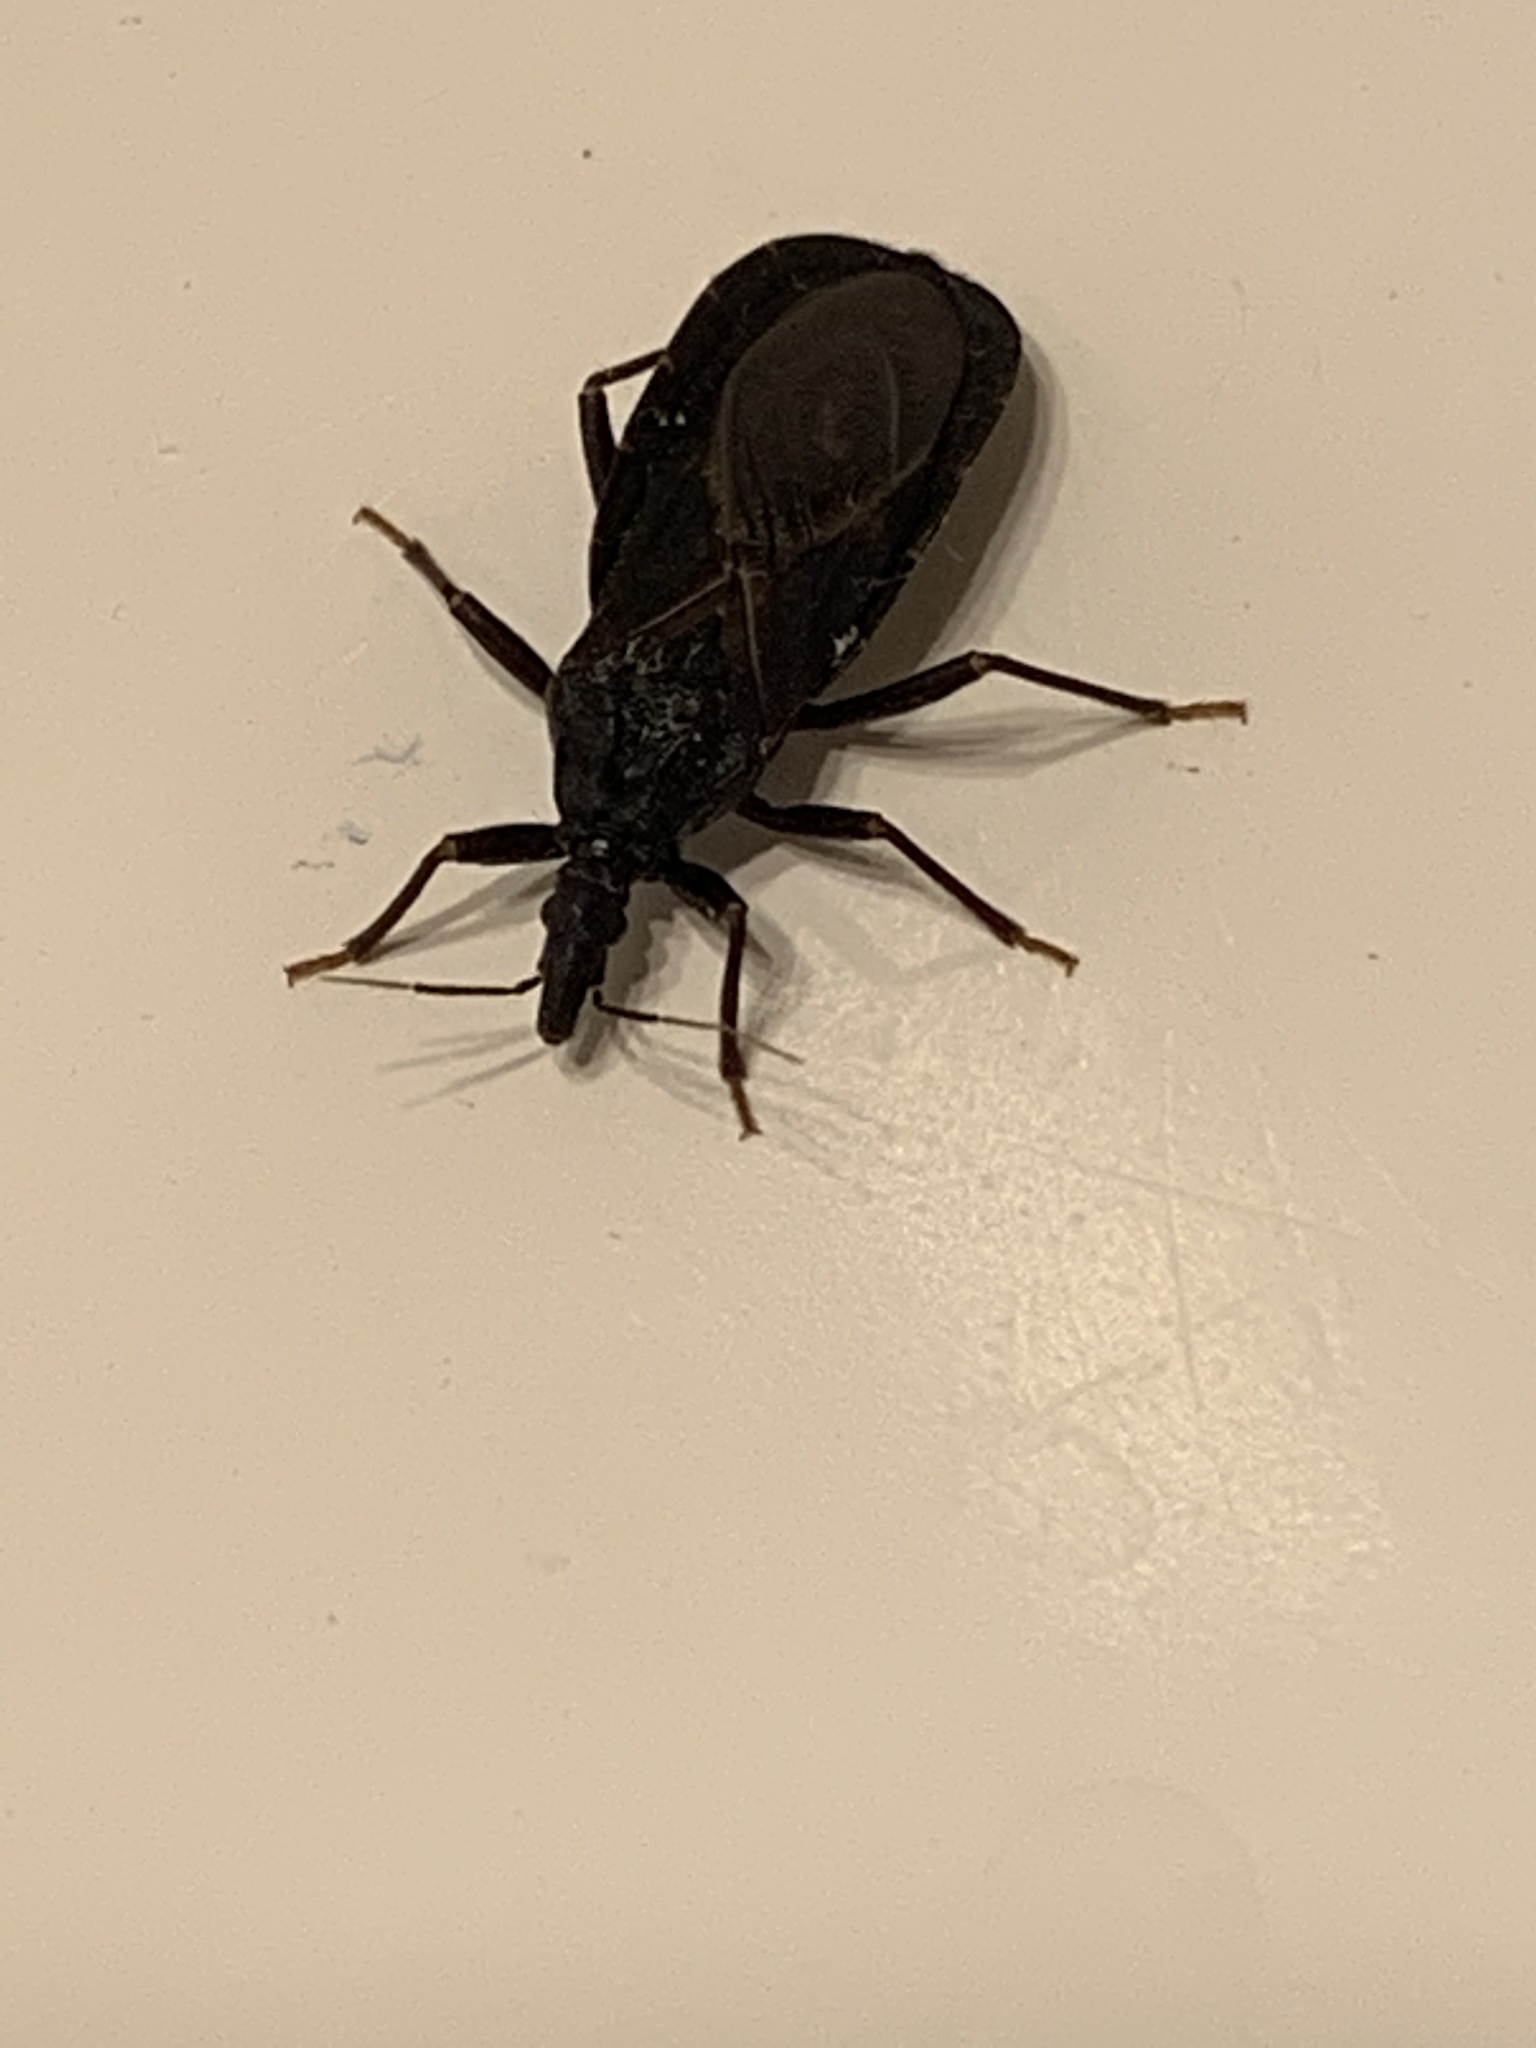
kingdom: Animalia
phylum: Arthropoda
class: Insecta
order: Hemiptera
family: Reduviidae
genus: Triatoma
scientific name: Triatoma protracta
